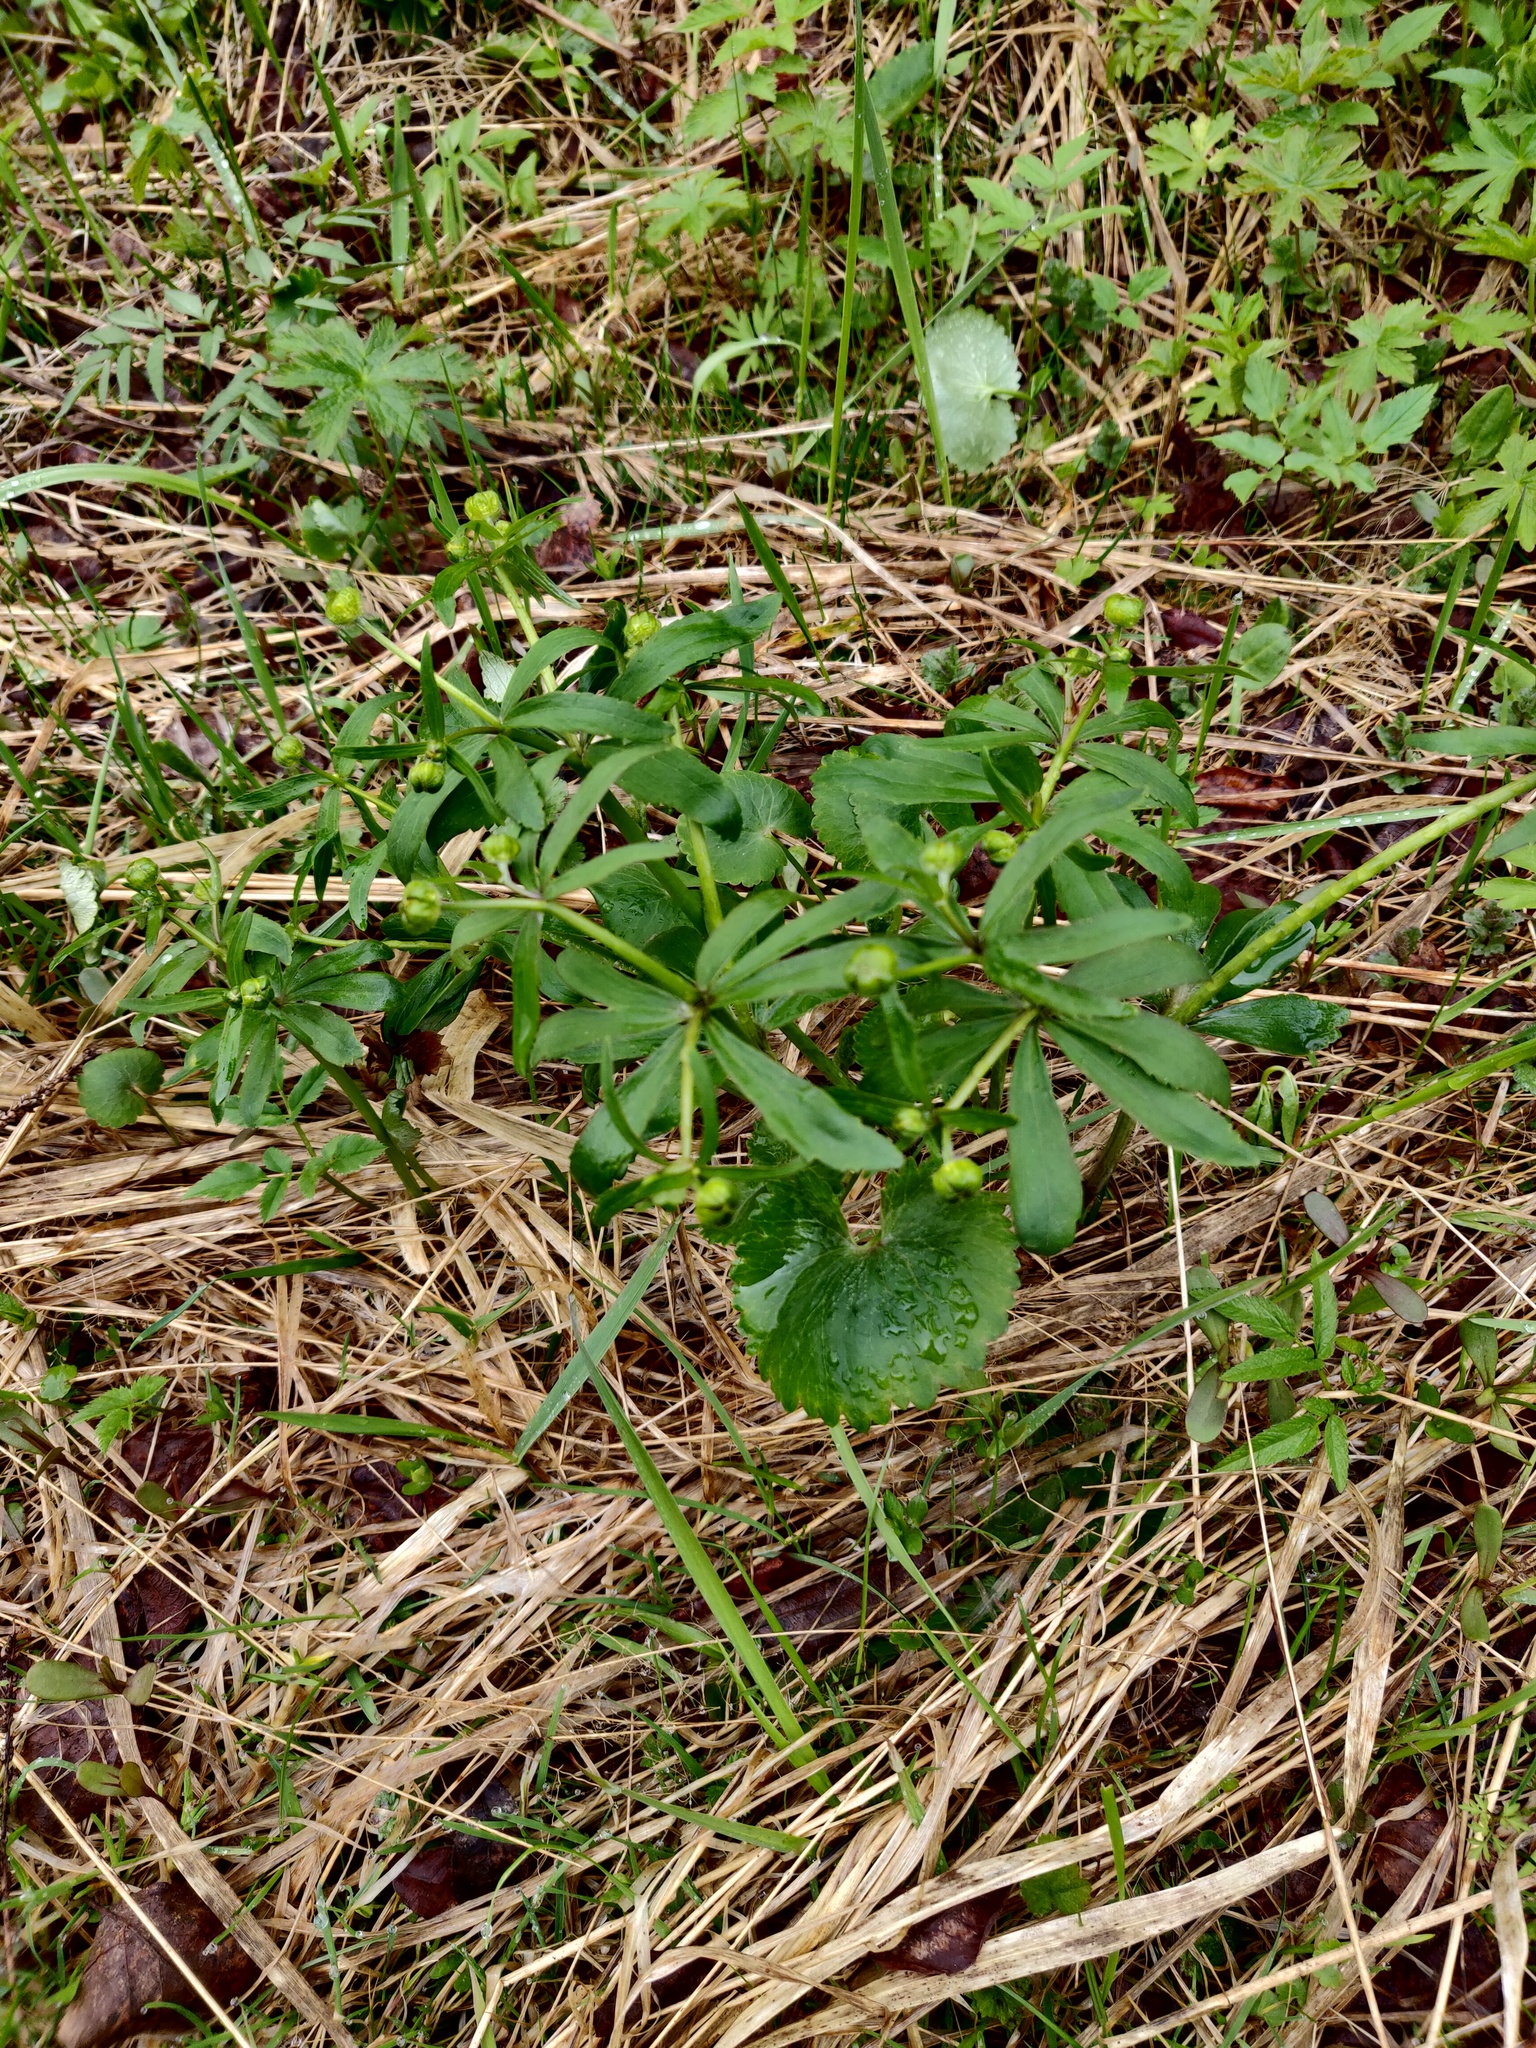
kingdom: Plantae
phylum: Tracheophyta
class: Magnoliopsida
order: Ranunculales
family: Ranunculaceae
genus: Ranunculus
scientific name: Ranunculus cassubicus
